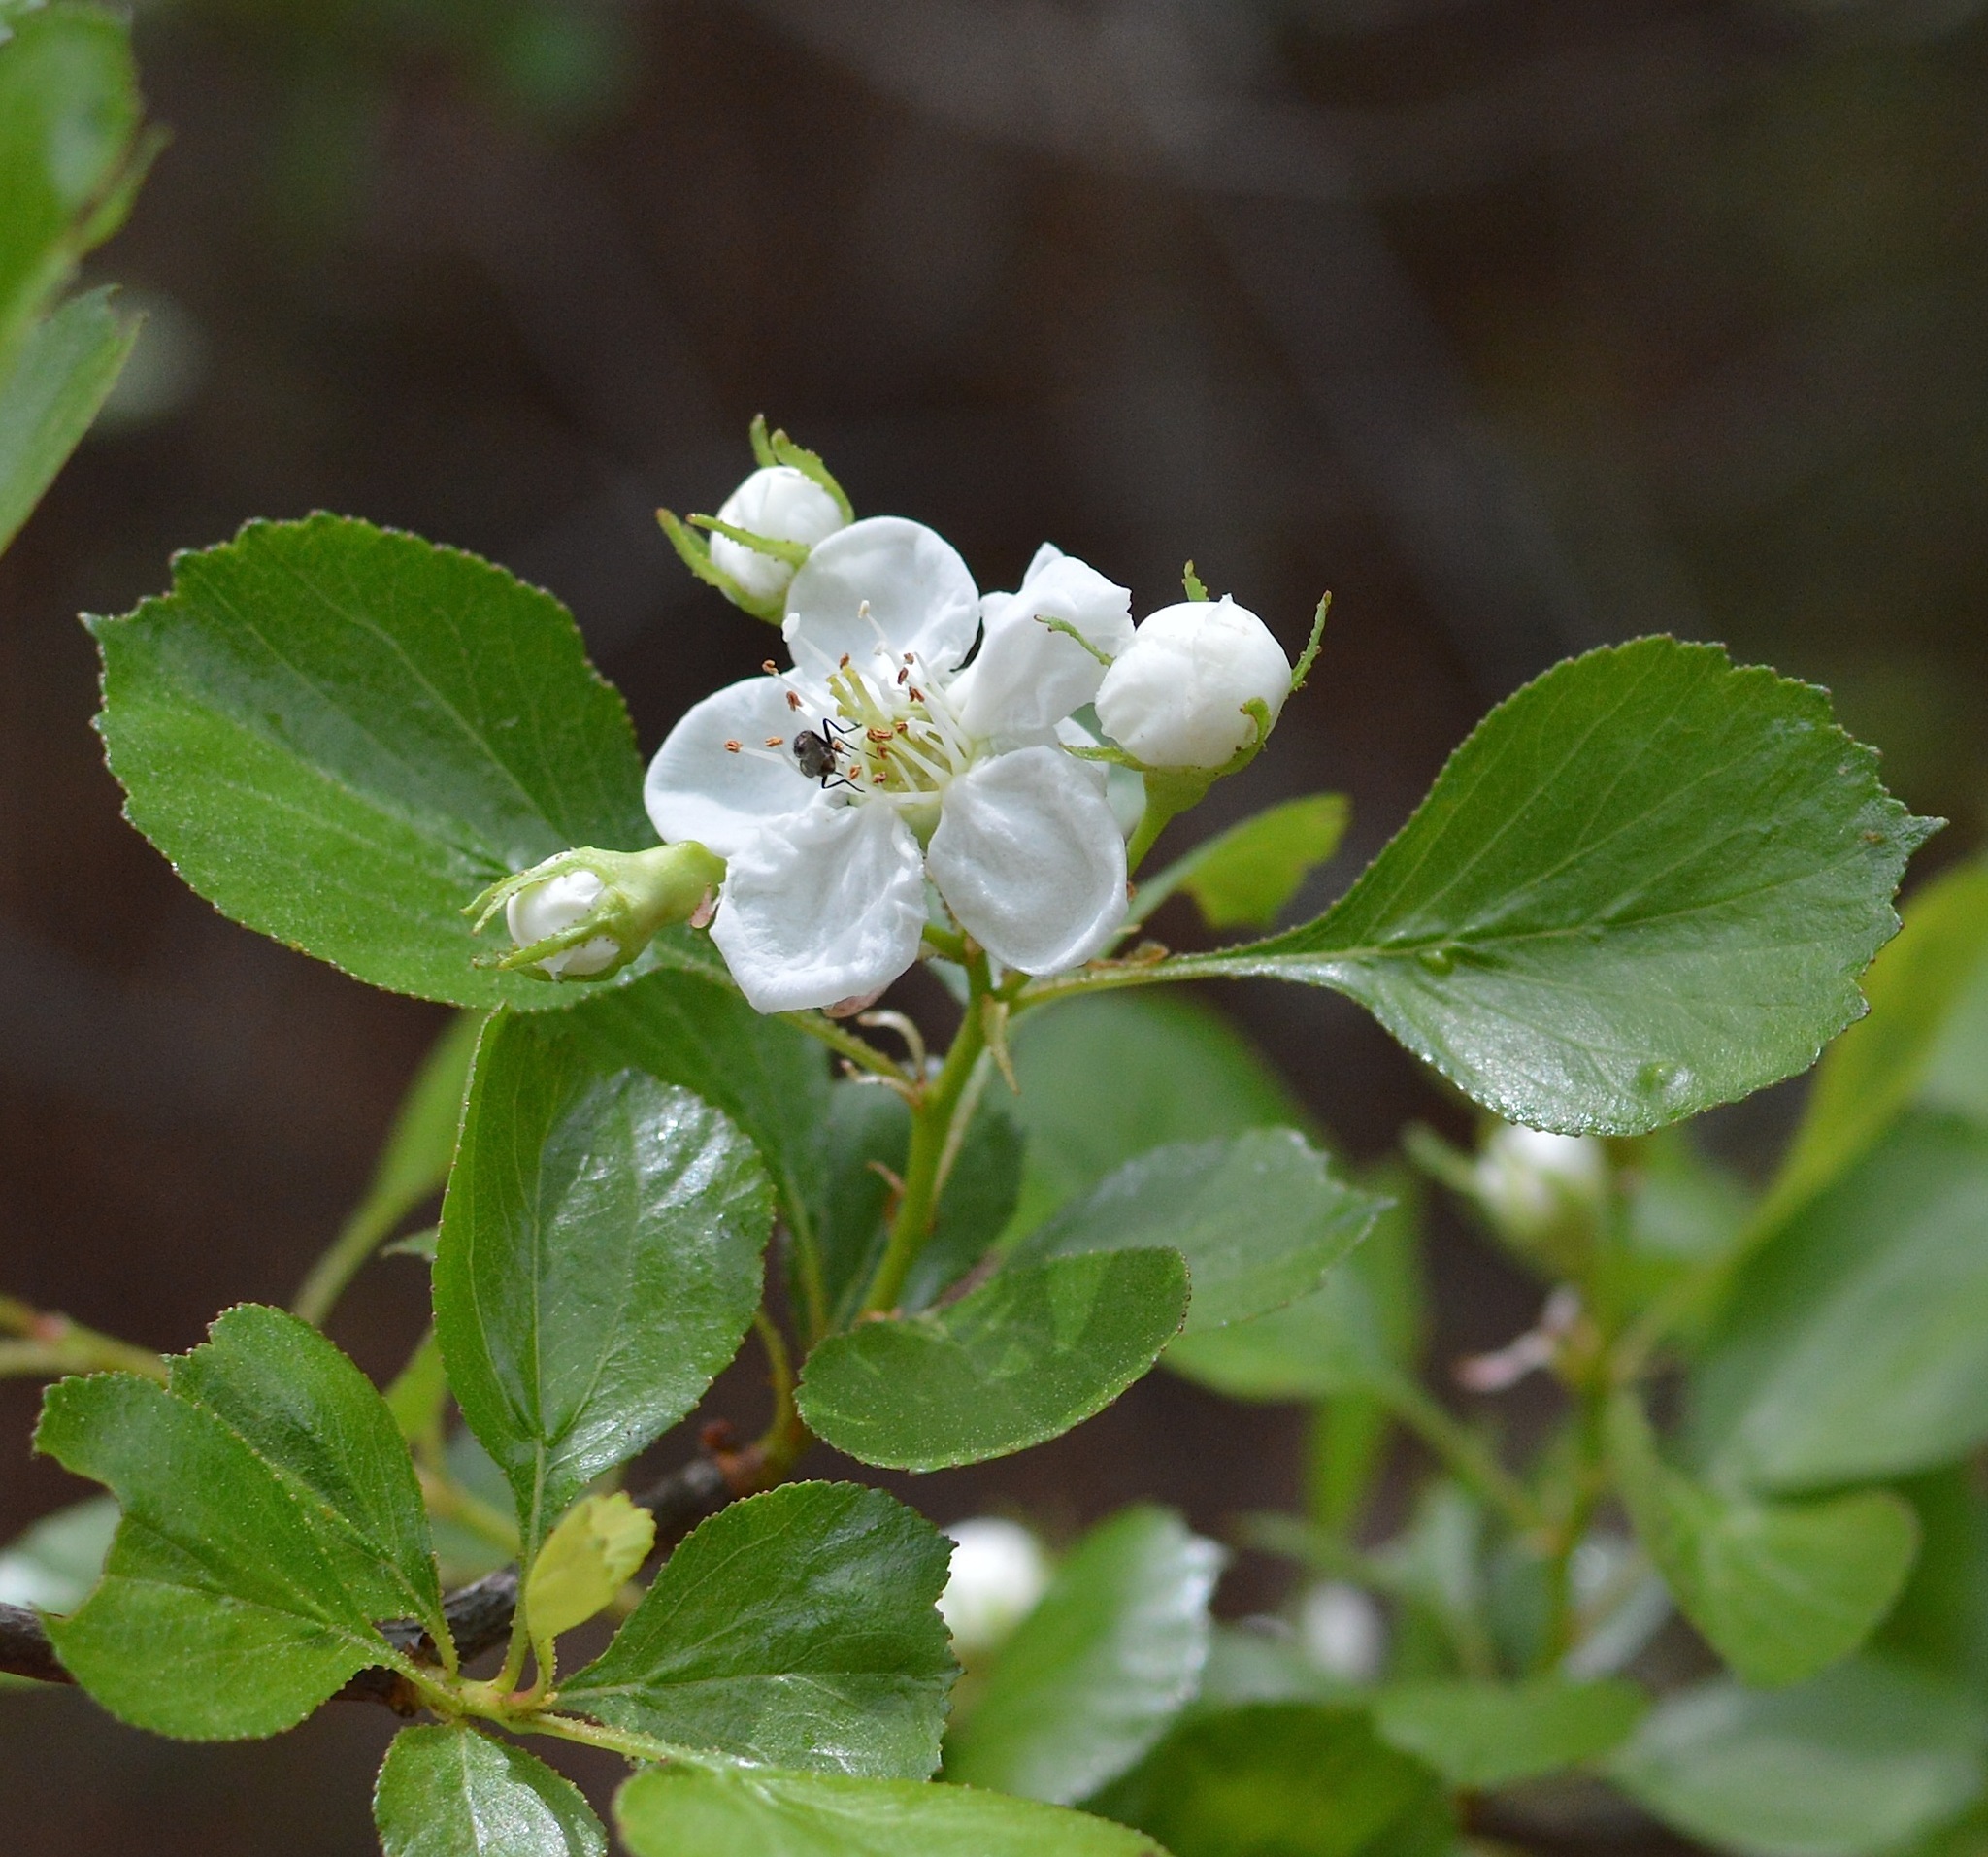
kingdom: Plantae
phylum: Tracheophyta
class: Magnoliopsida
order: Rosales
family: Rosaceae
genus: Crataegus
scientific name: Crataegus alabamensis
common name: Alabama hawthorn
